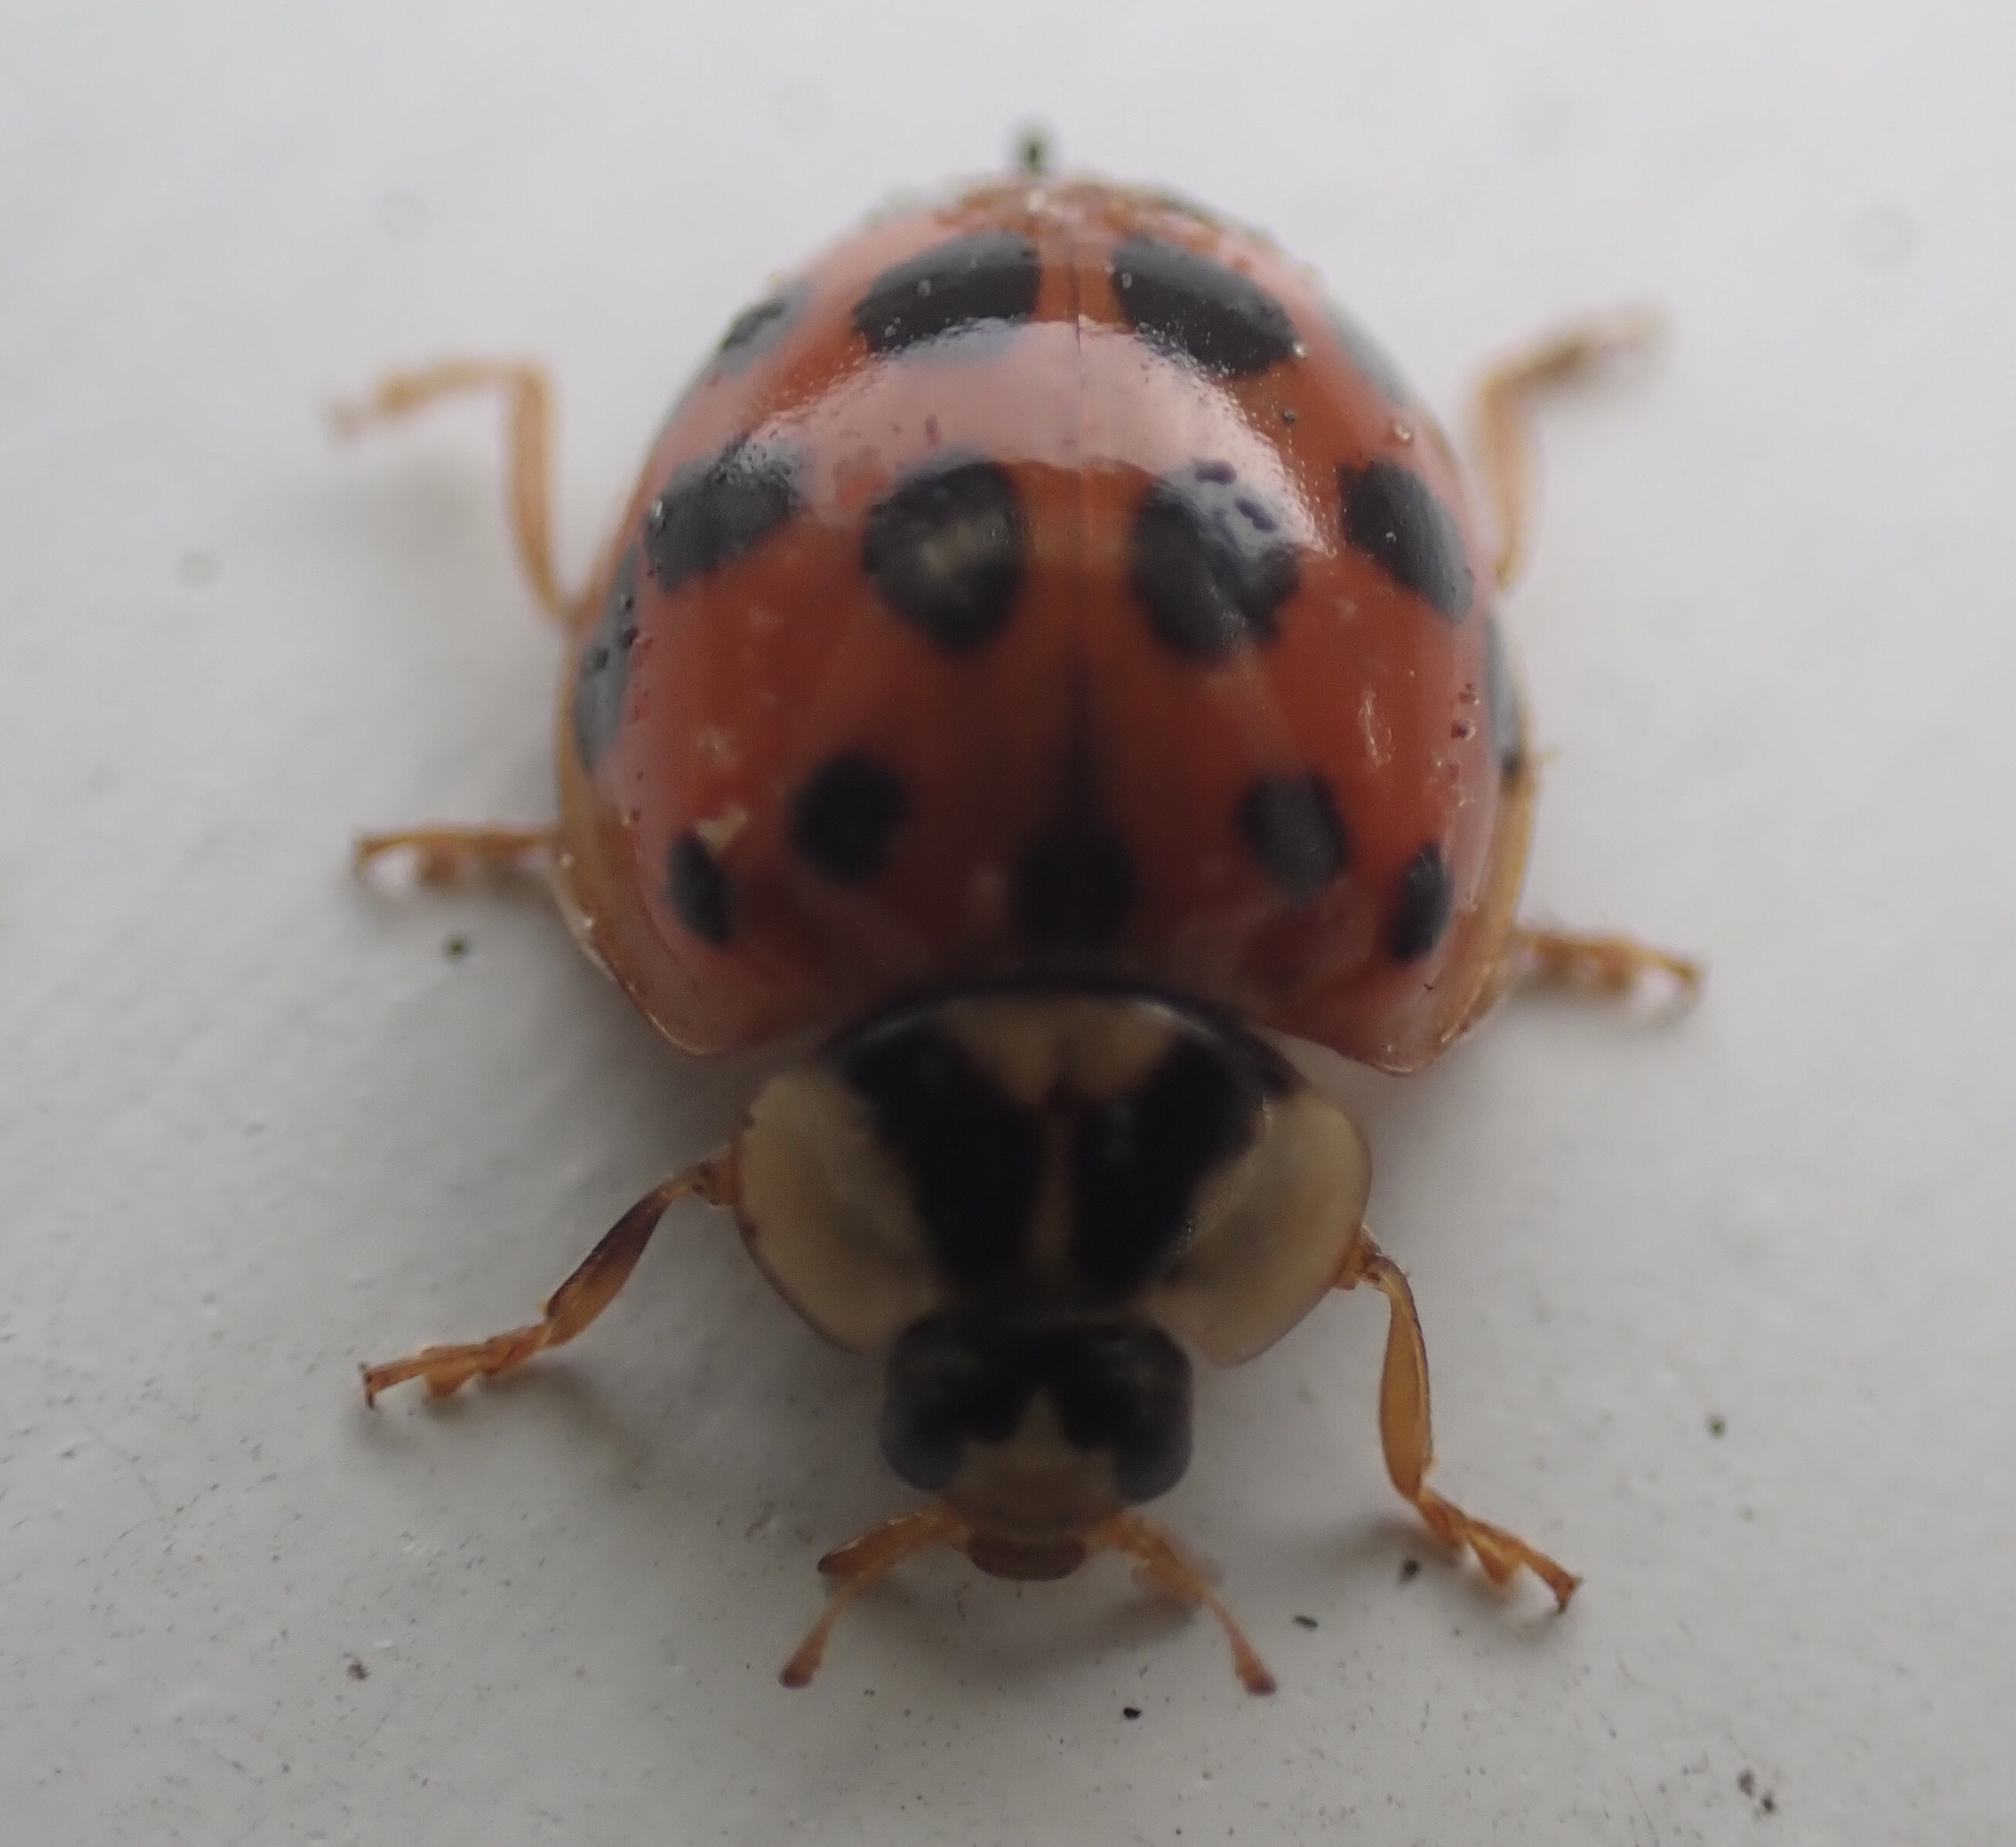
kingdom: Animalia
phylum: Arthropoda
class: Insecta
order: Coleoptera
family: Coccinellidae
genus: Harmonia
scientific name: Harmonia axyridis
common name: Harlequin ladybird
